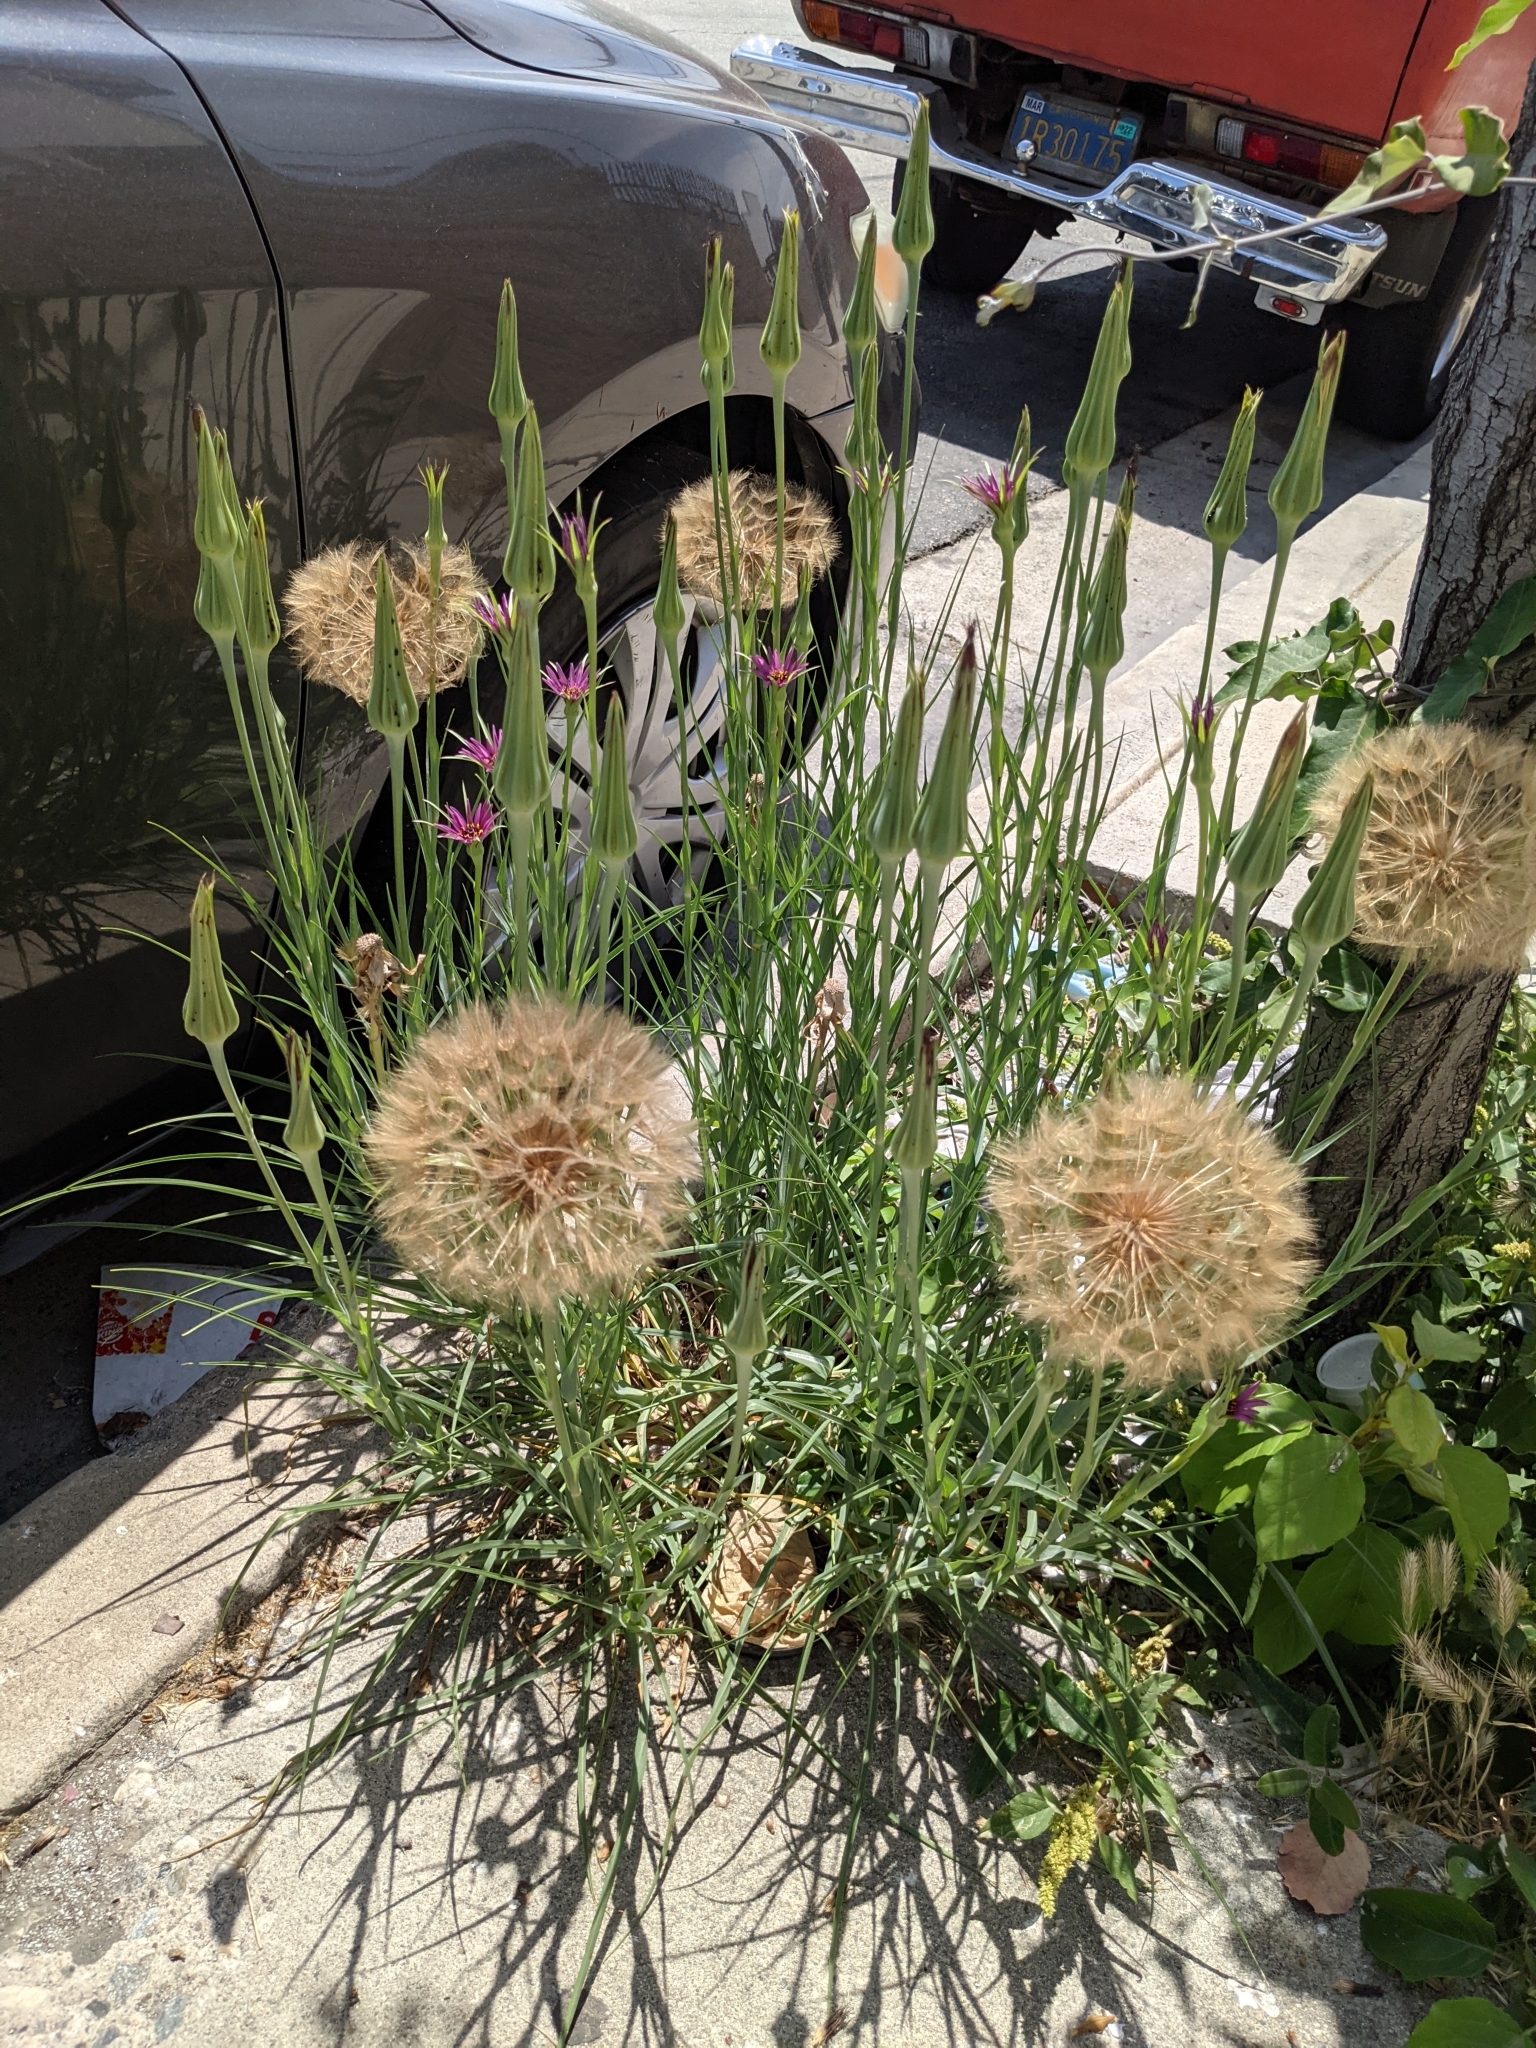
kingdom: Plantae
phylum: Tracheophyta
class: Magnoliopsida
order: Asterales
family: Asteraceae
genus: Tragopogon
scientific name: Tragopogon porrifolius
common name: Salsify
